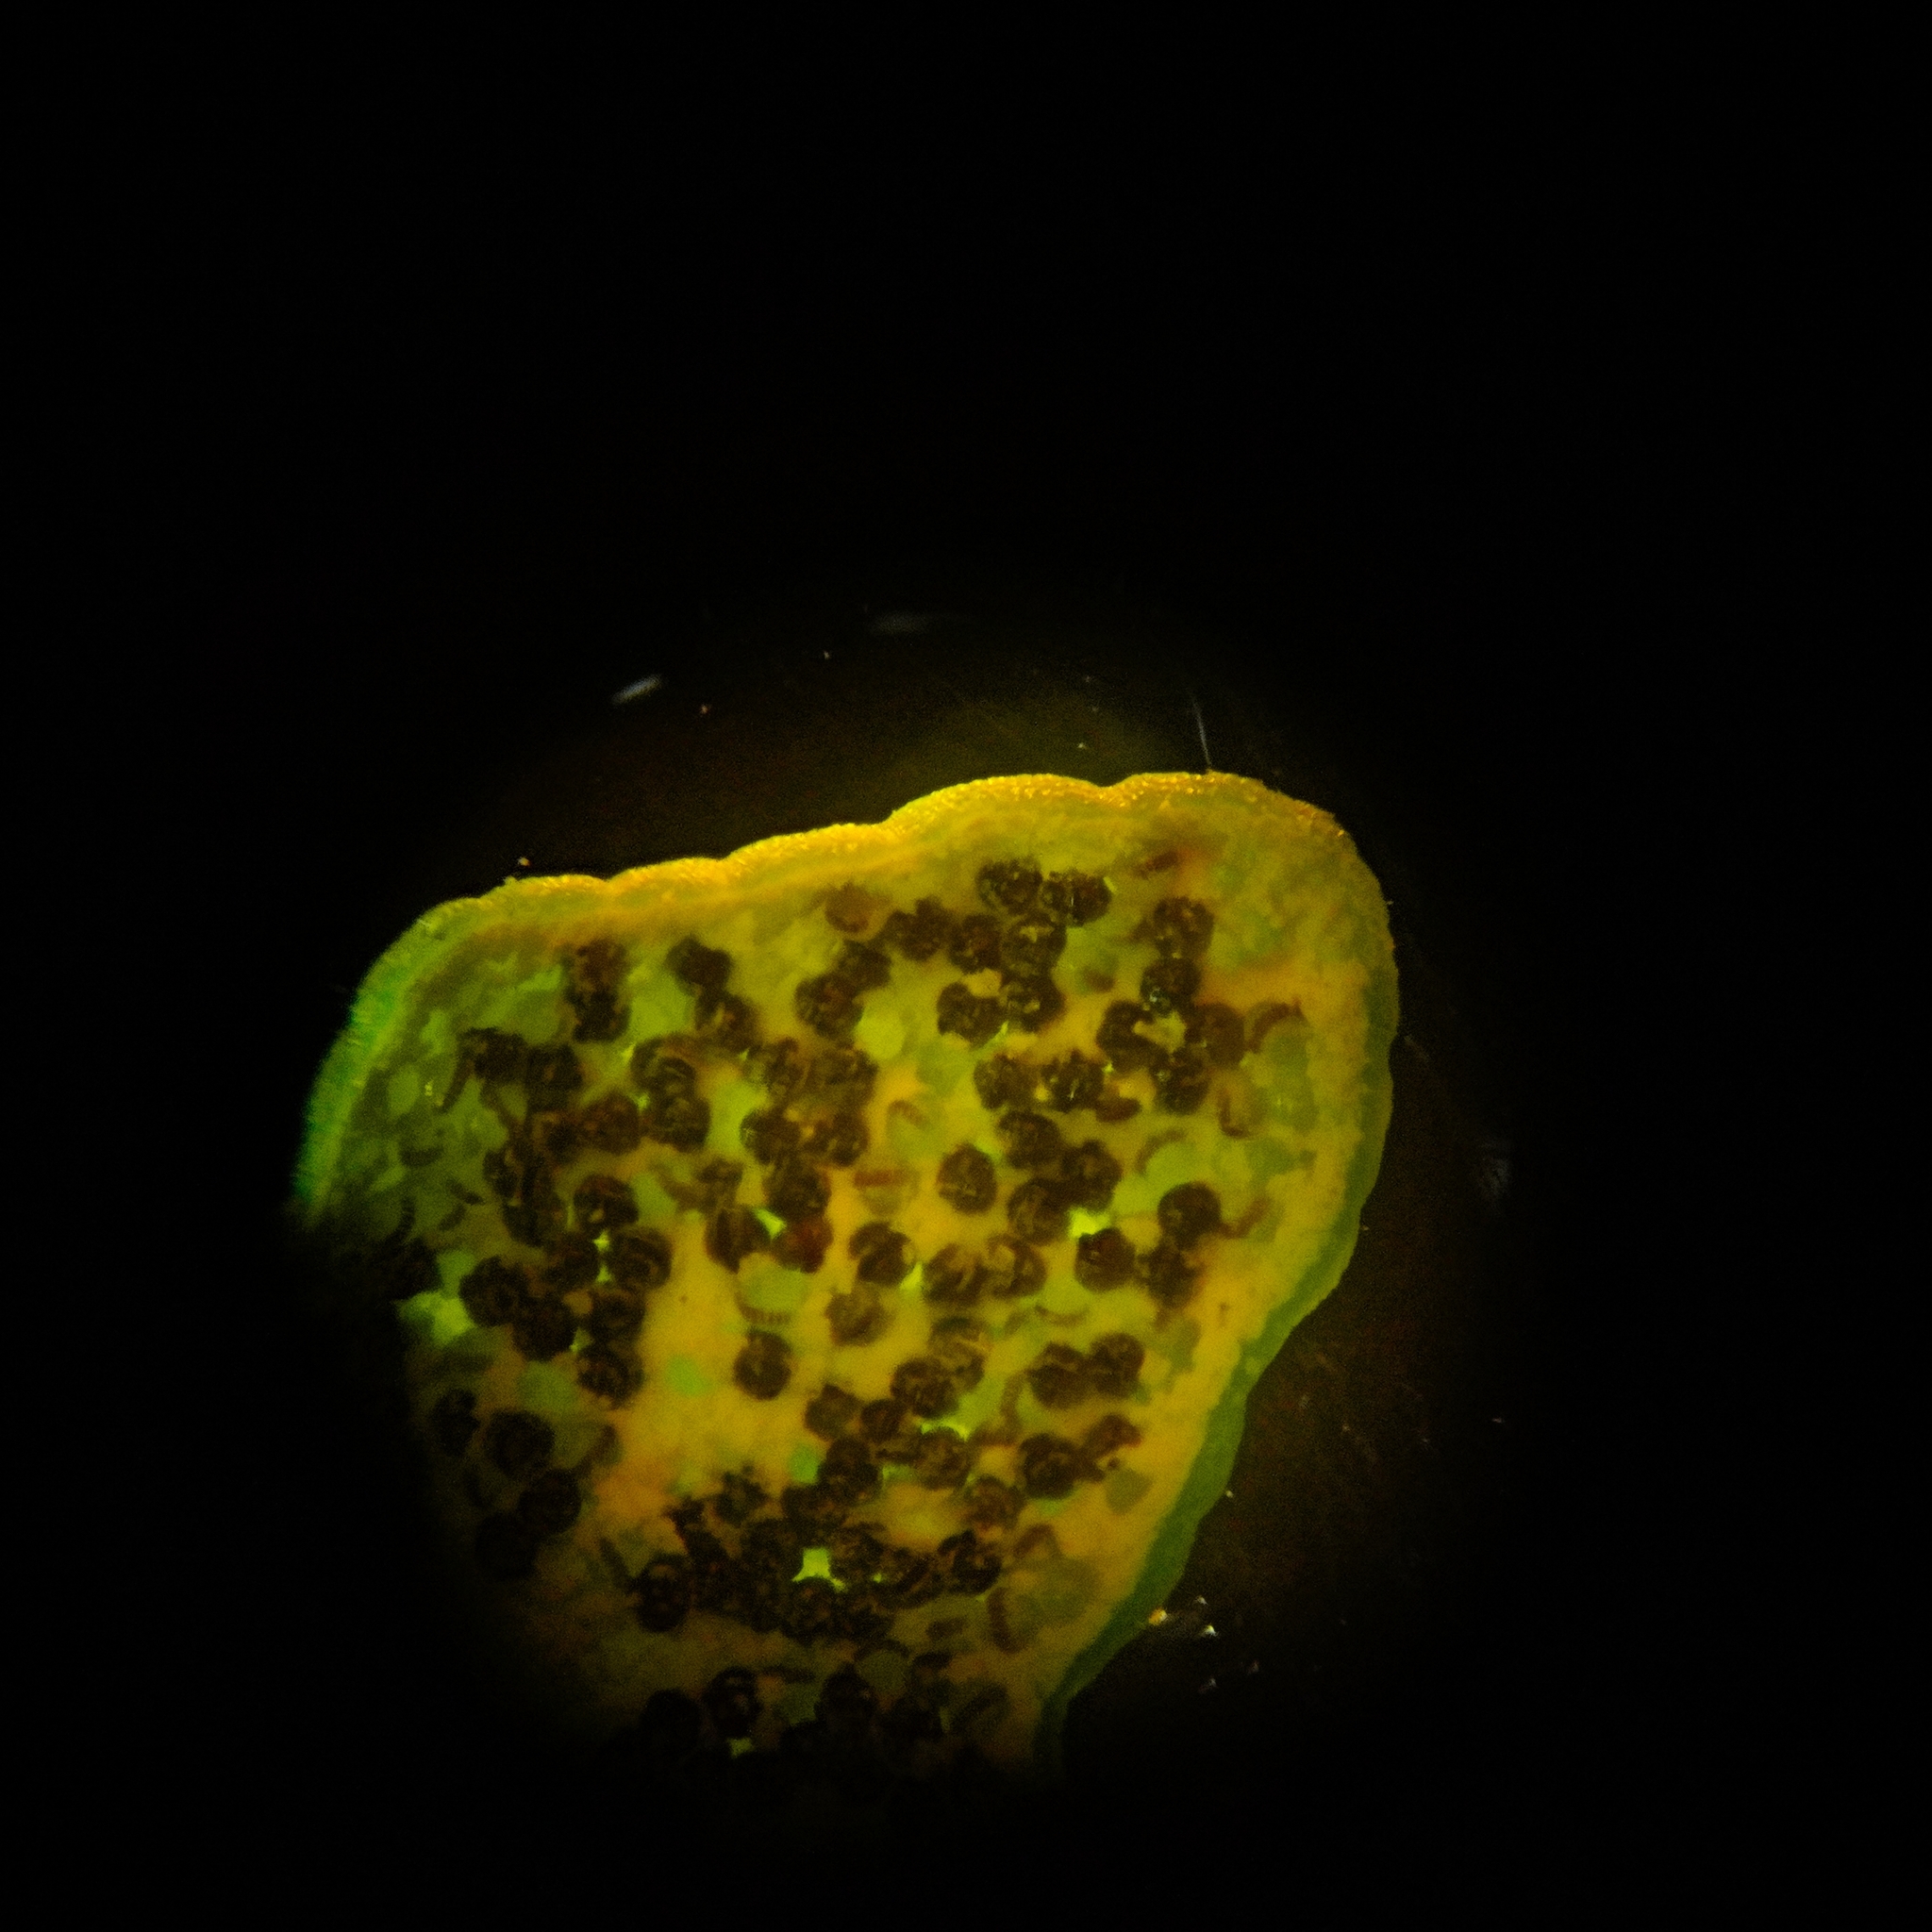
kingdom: Plantae
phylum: Tracheophyta
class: Polypodiopsida
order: Polypodiales
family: Pteridaceae
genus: Pentagramma
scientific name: Pentagramma triangularis
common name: Gold fern
